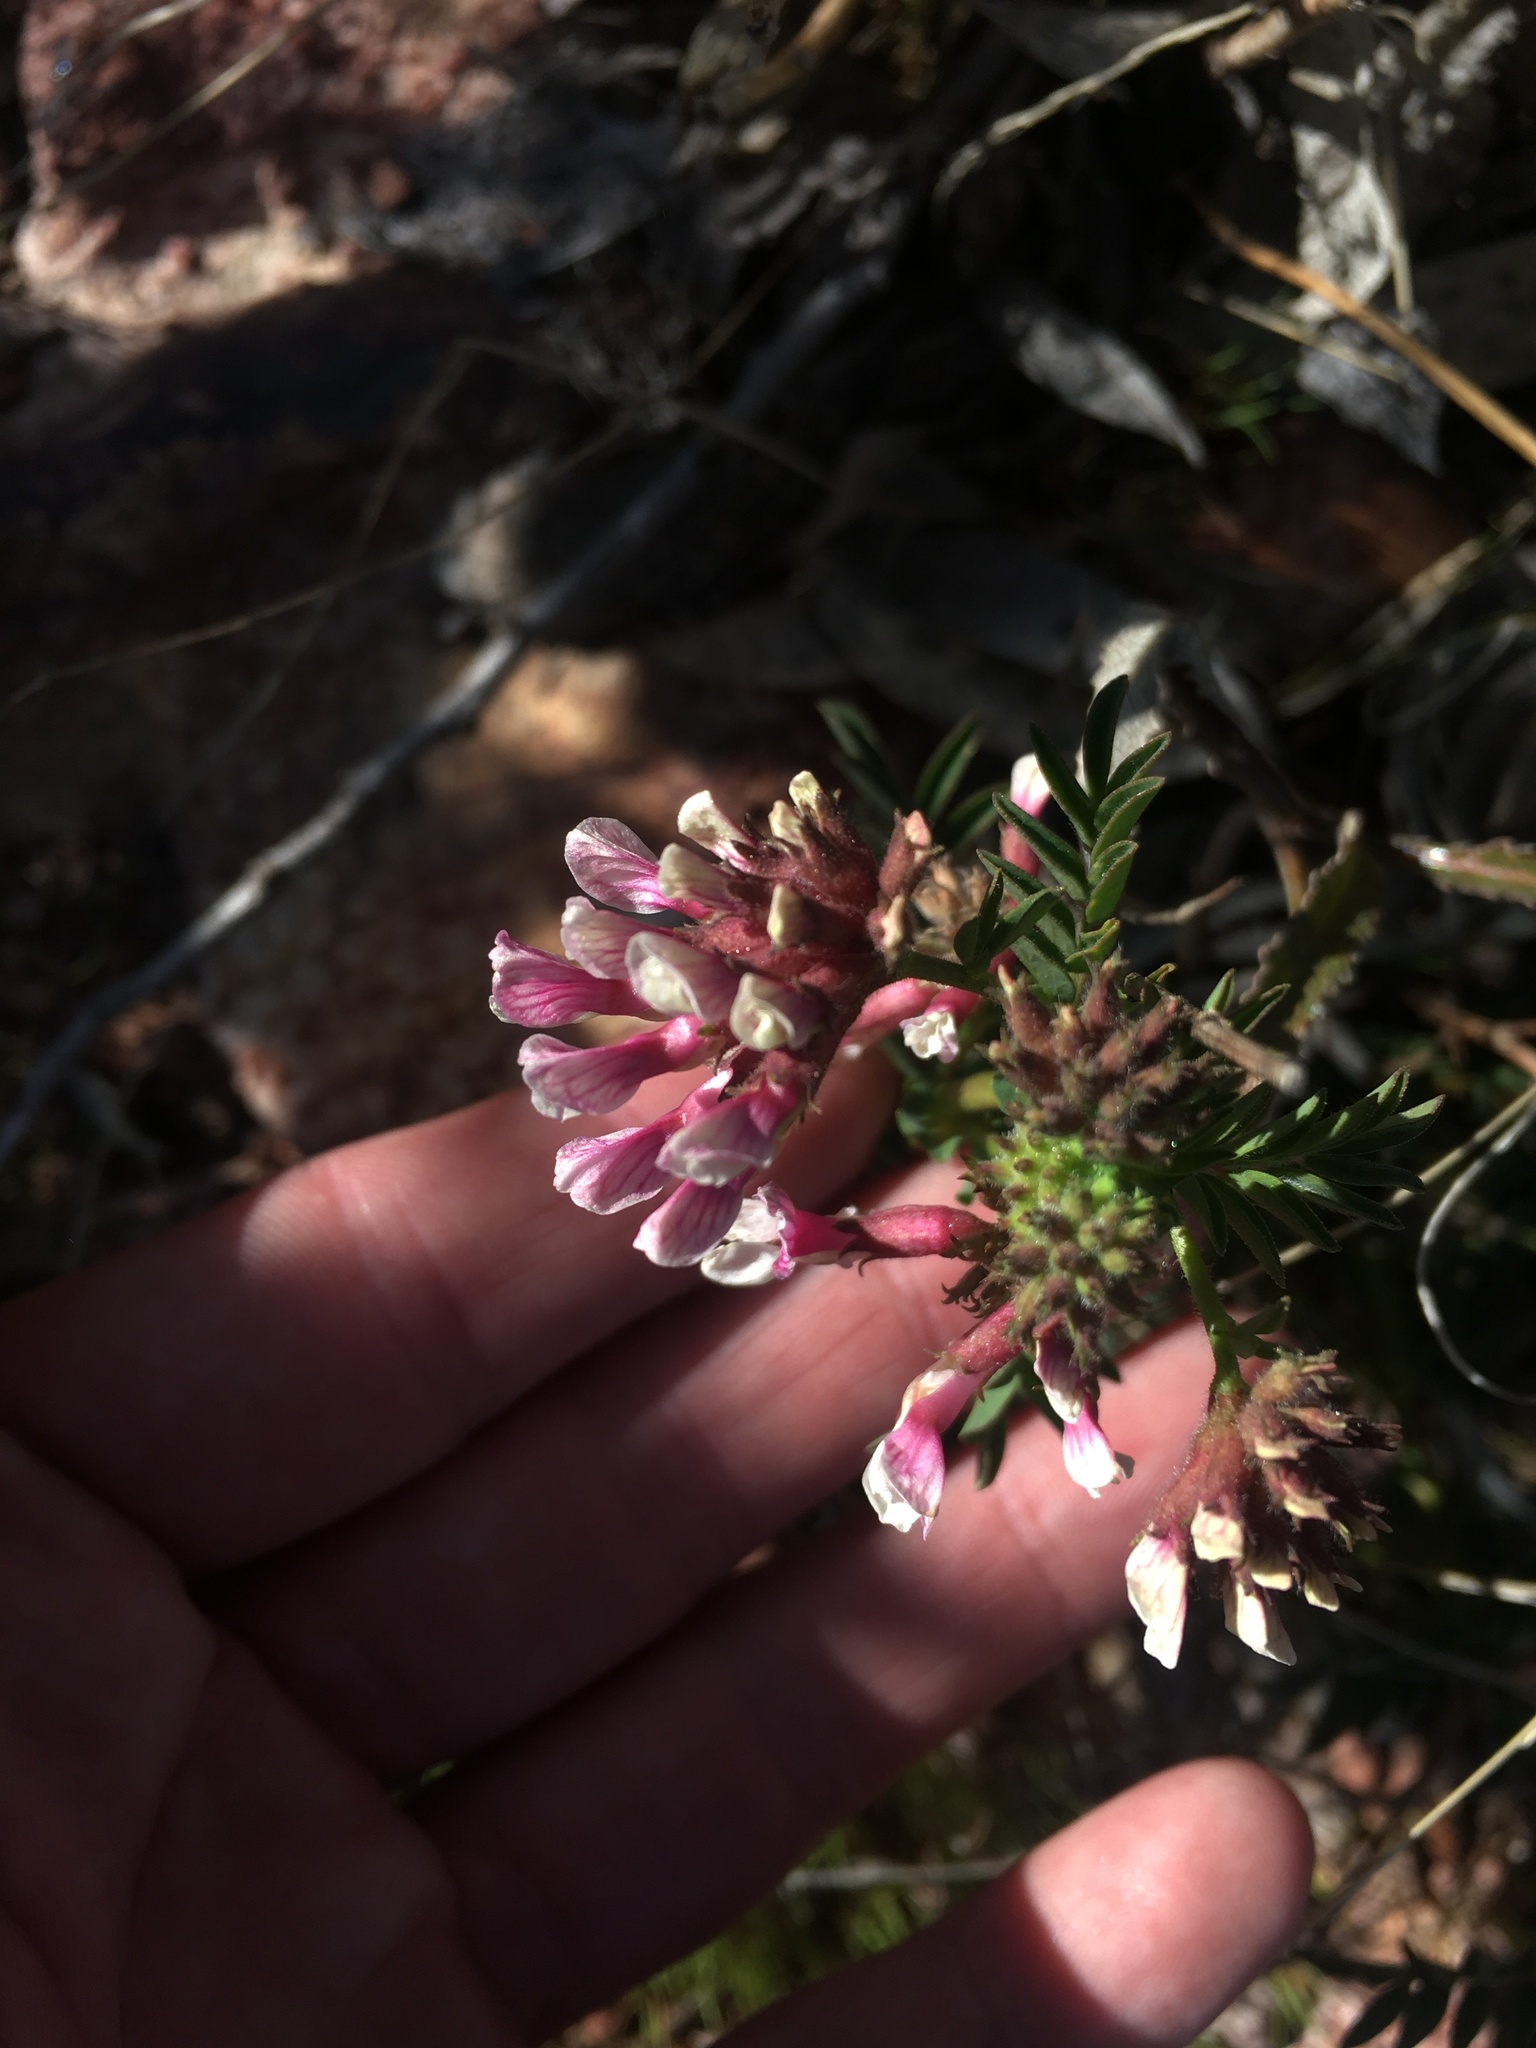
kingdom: Plantae
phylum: Tracheophyta
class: Magnoliopsida
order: Fabales
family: Fabaceae
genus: Hosackia
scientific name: Hosackia stipularis
